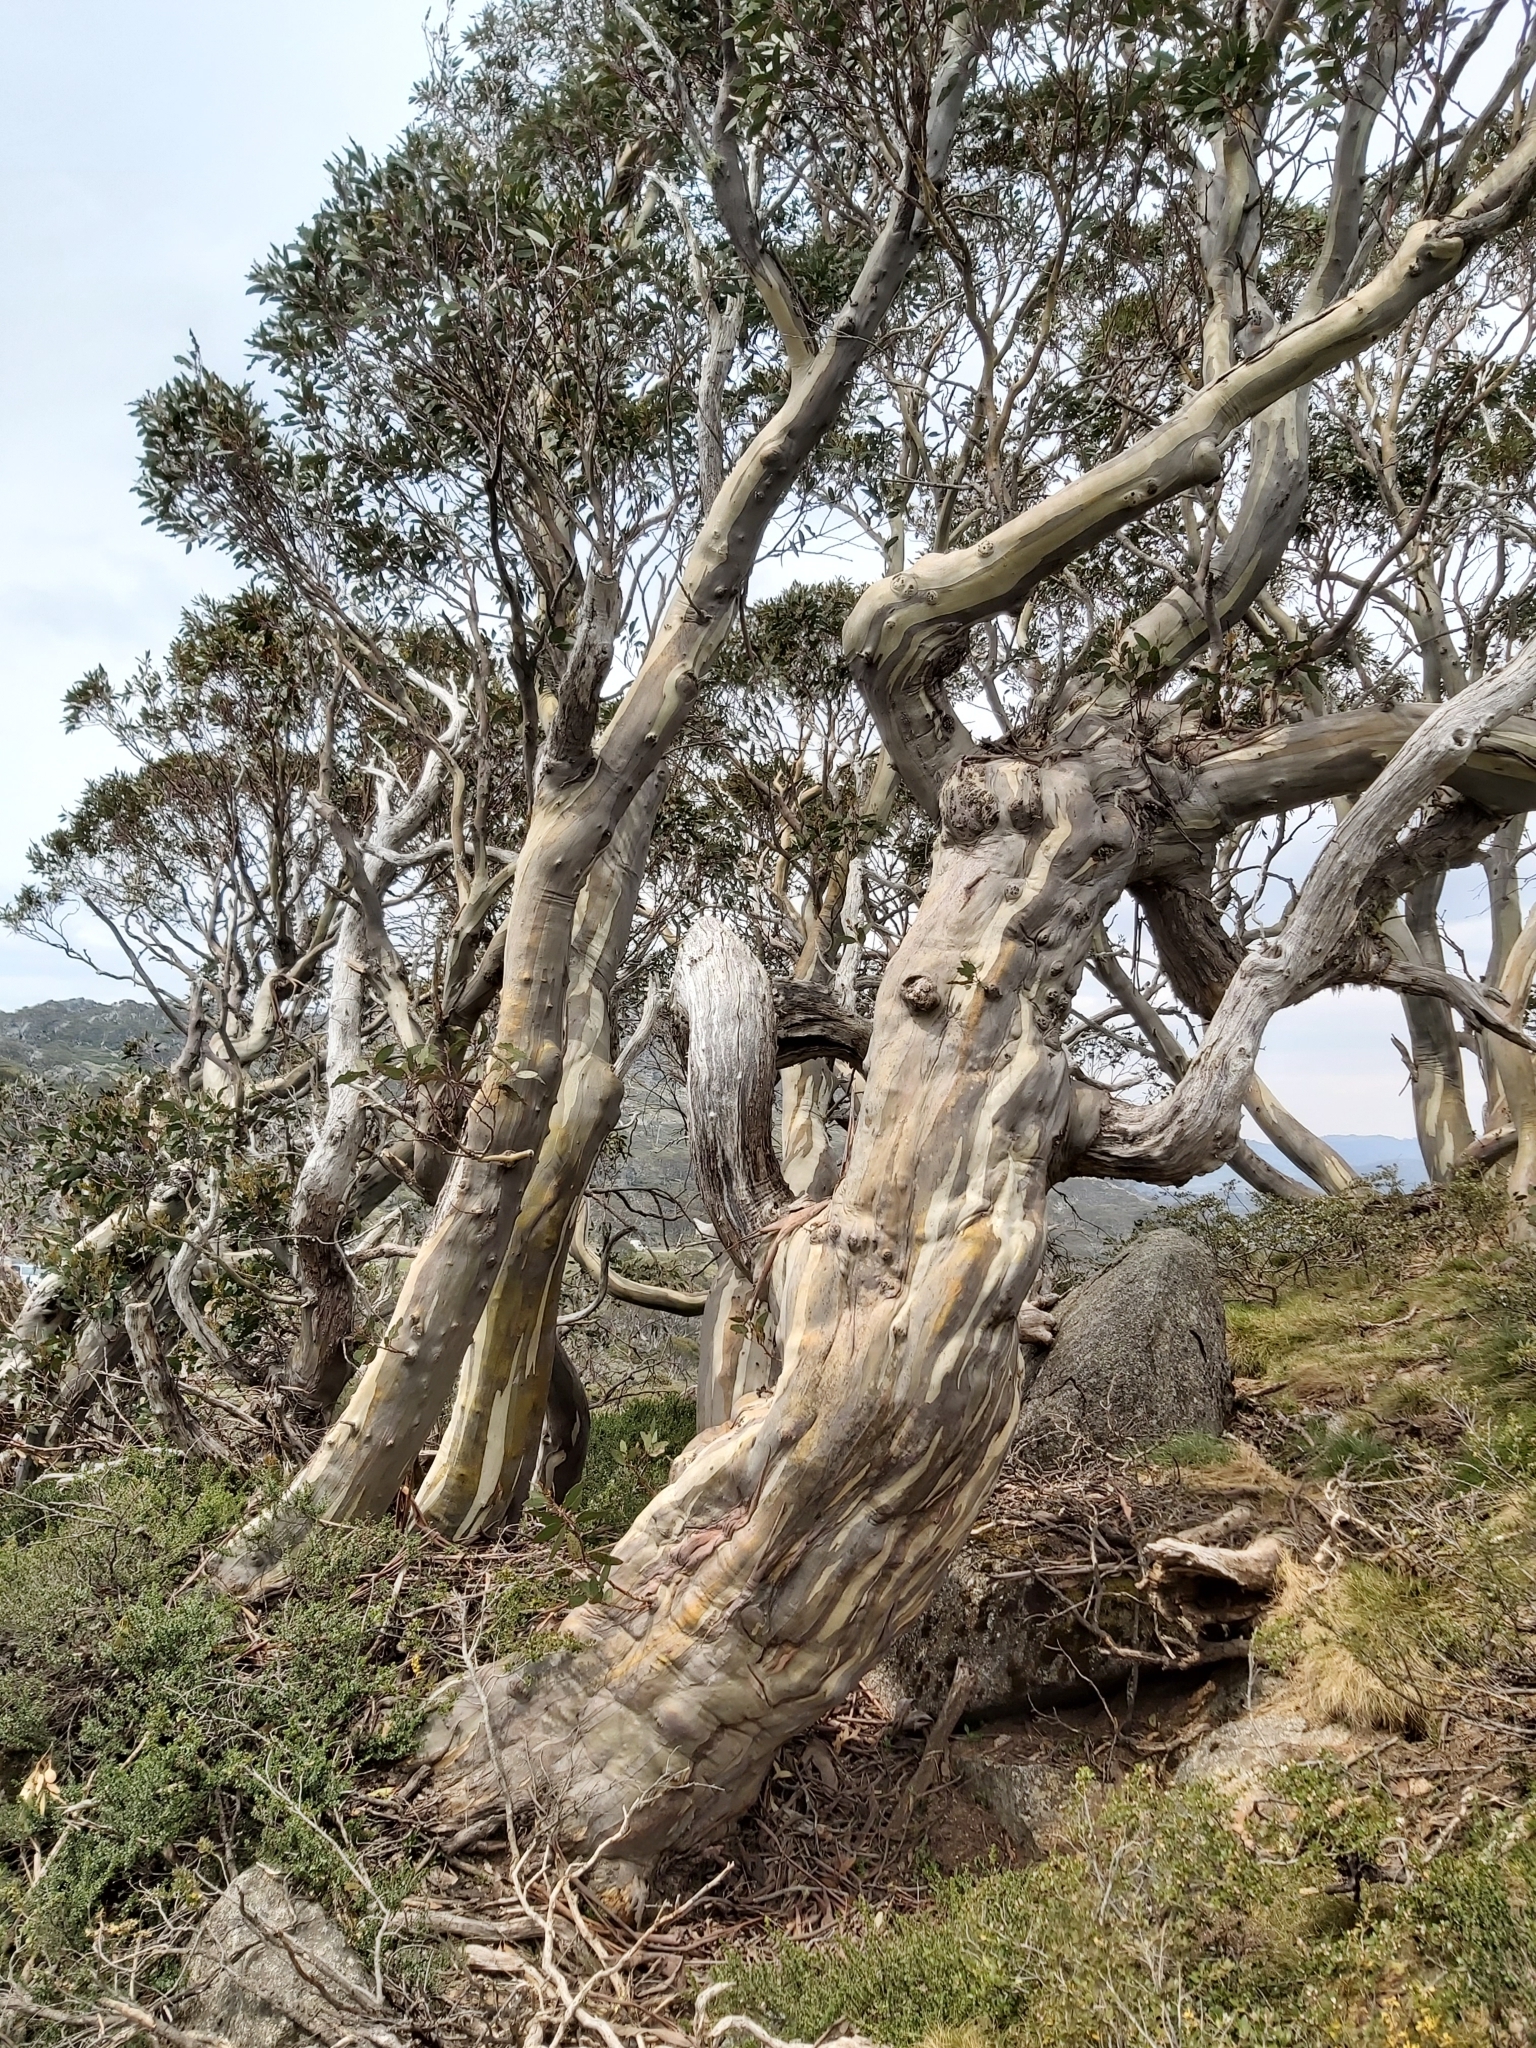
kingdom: Plantae
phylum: Tracheophyta
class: Magnoliopsida
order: Myrtales
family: Myrtaceae
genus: Eucalyptus
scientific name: Eucalyptus pauciflora
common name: Snow gum
